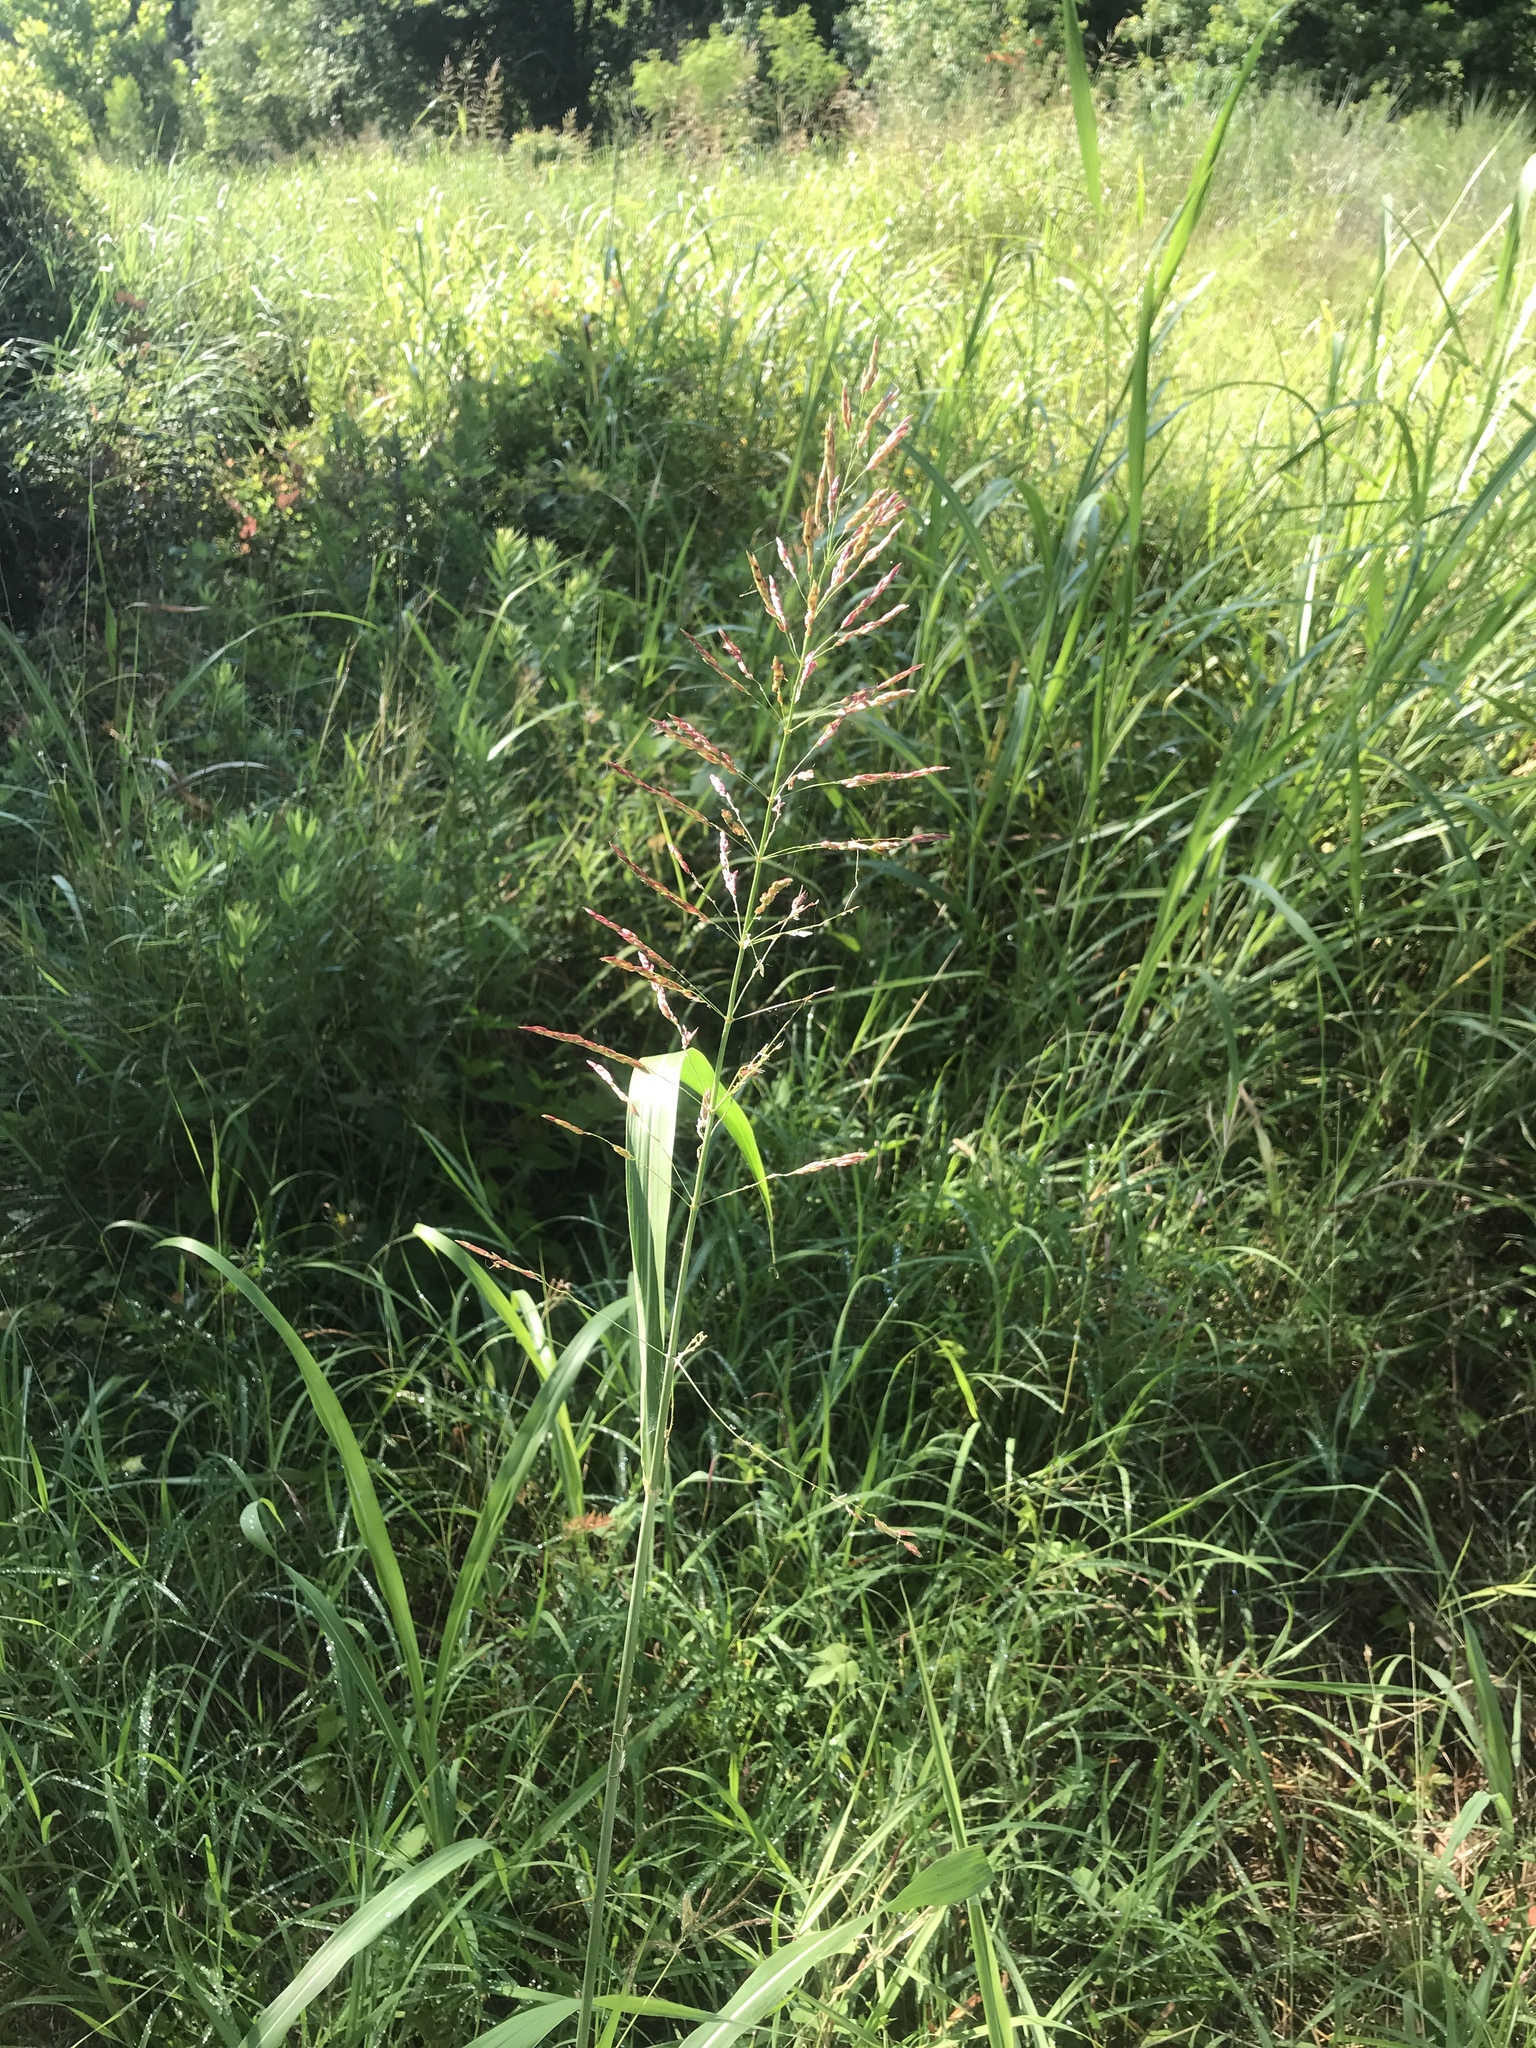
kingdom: Plantae
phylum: Tracheophyta
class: Liliopsida
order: Poales
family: Poaceae
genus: Sorghum
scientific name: Sorghum halepense
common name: Johnson-grass
